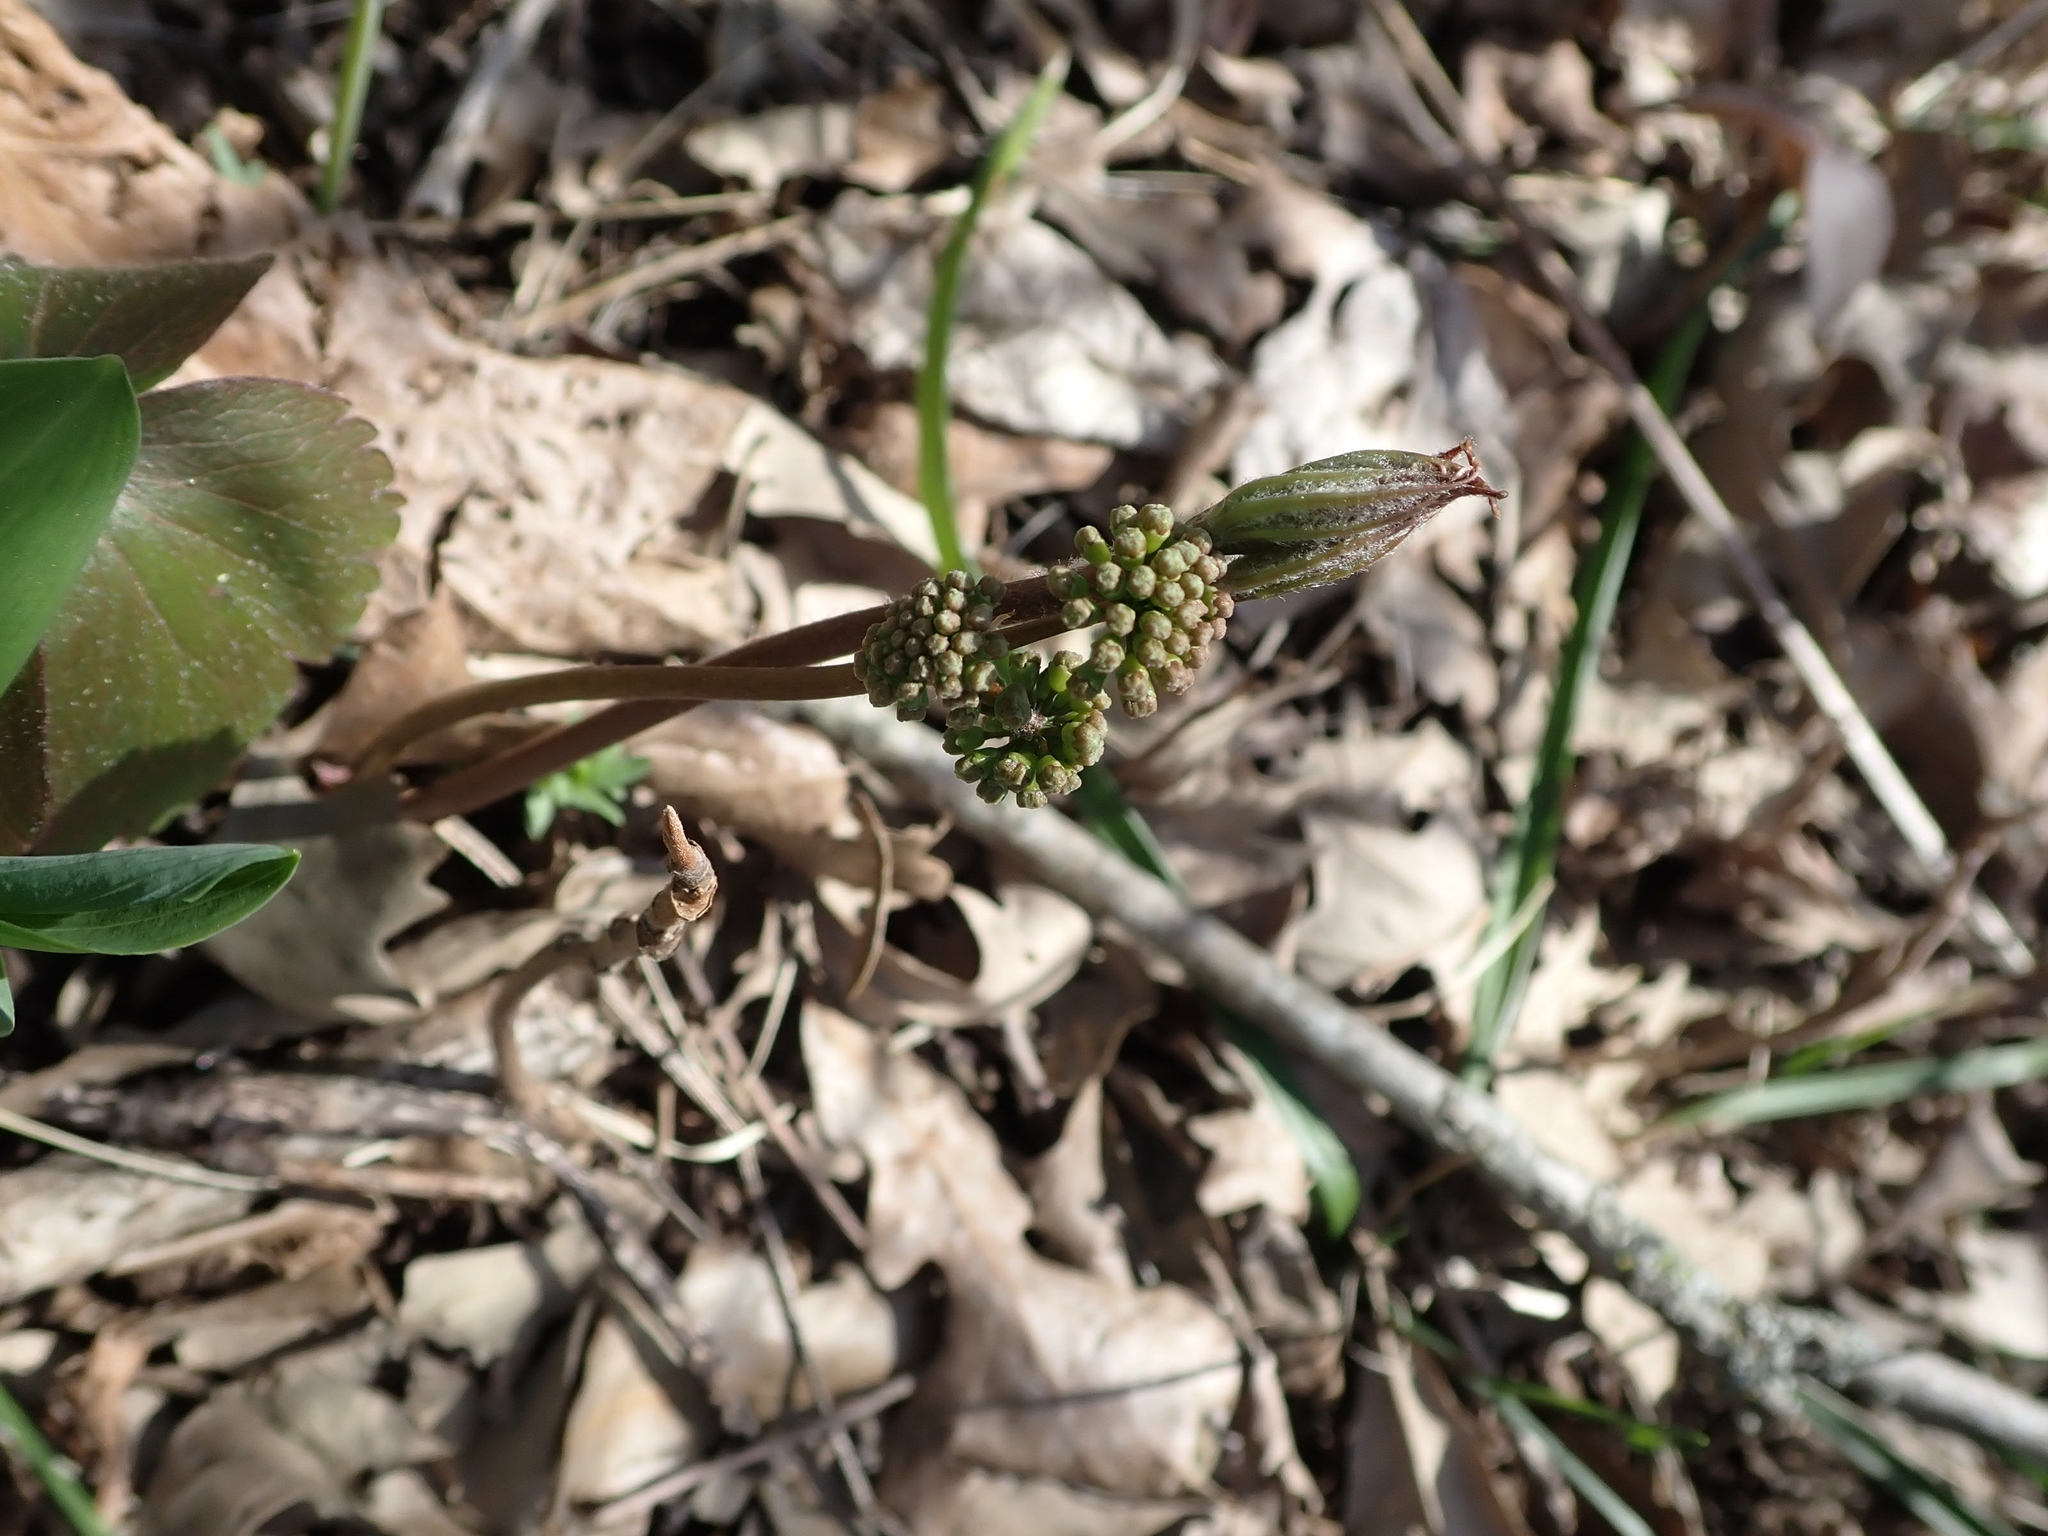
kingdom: Plantae
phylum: Tracheophyta
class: Magnoliopsida
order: Apiales
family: Araliaceae
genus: Aralia
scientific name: Aralia nudicaulis
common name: Wild sarsaparilla
